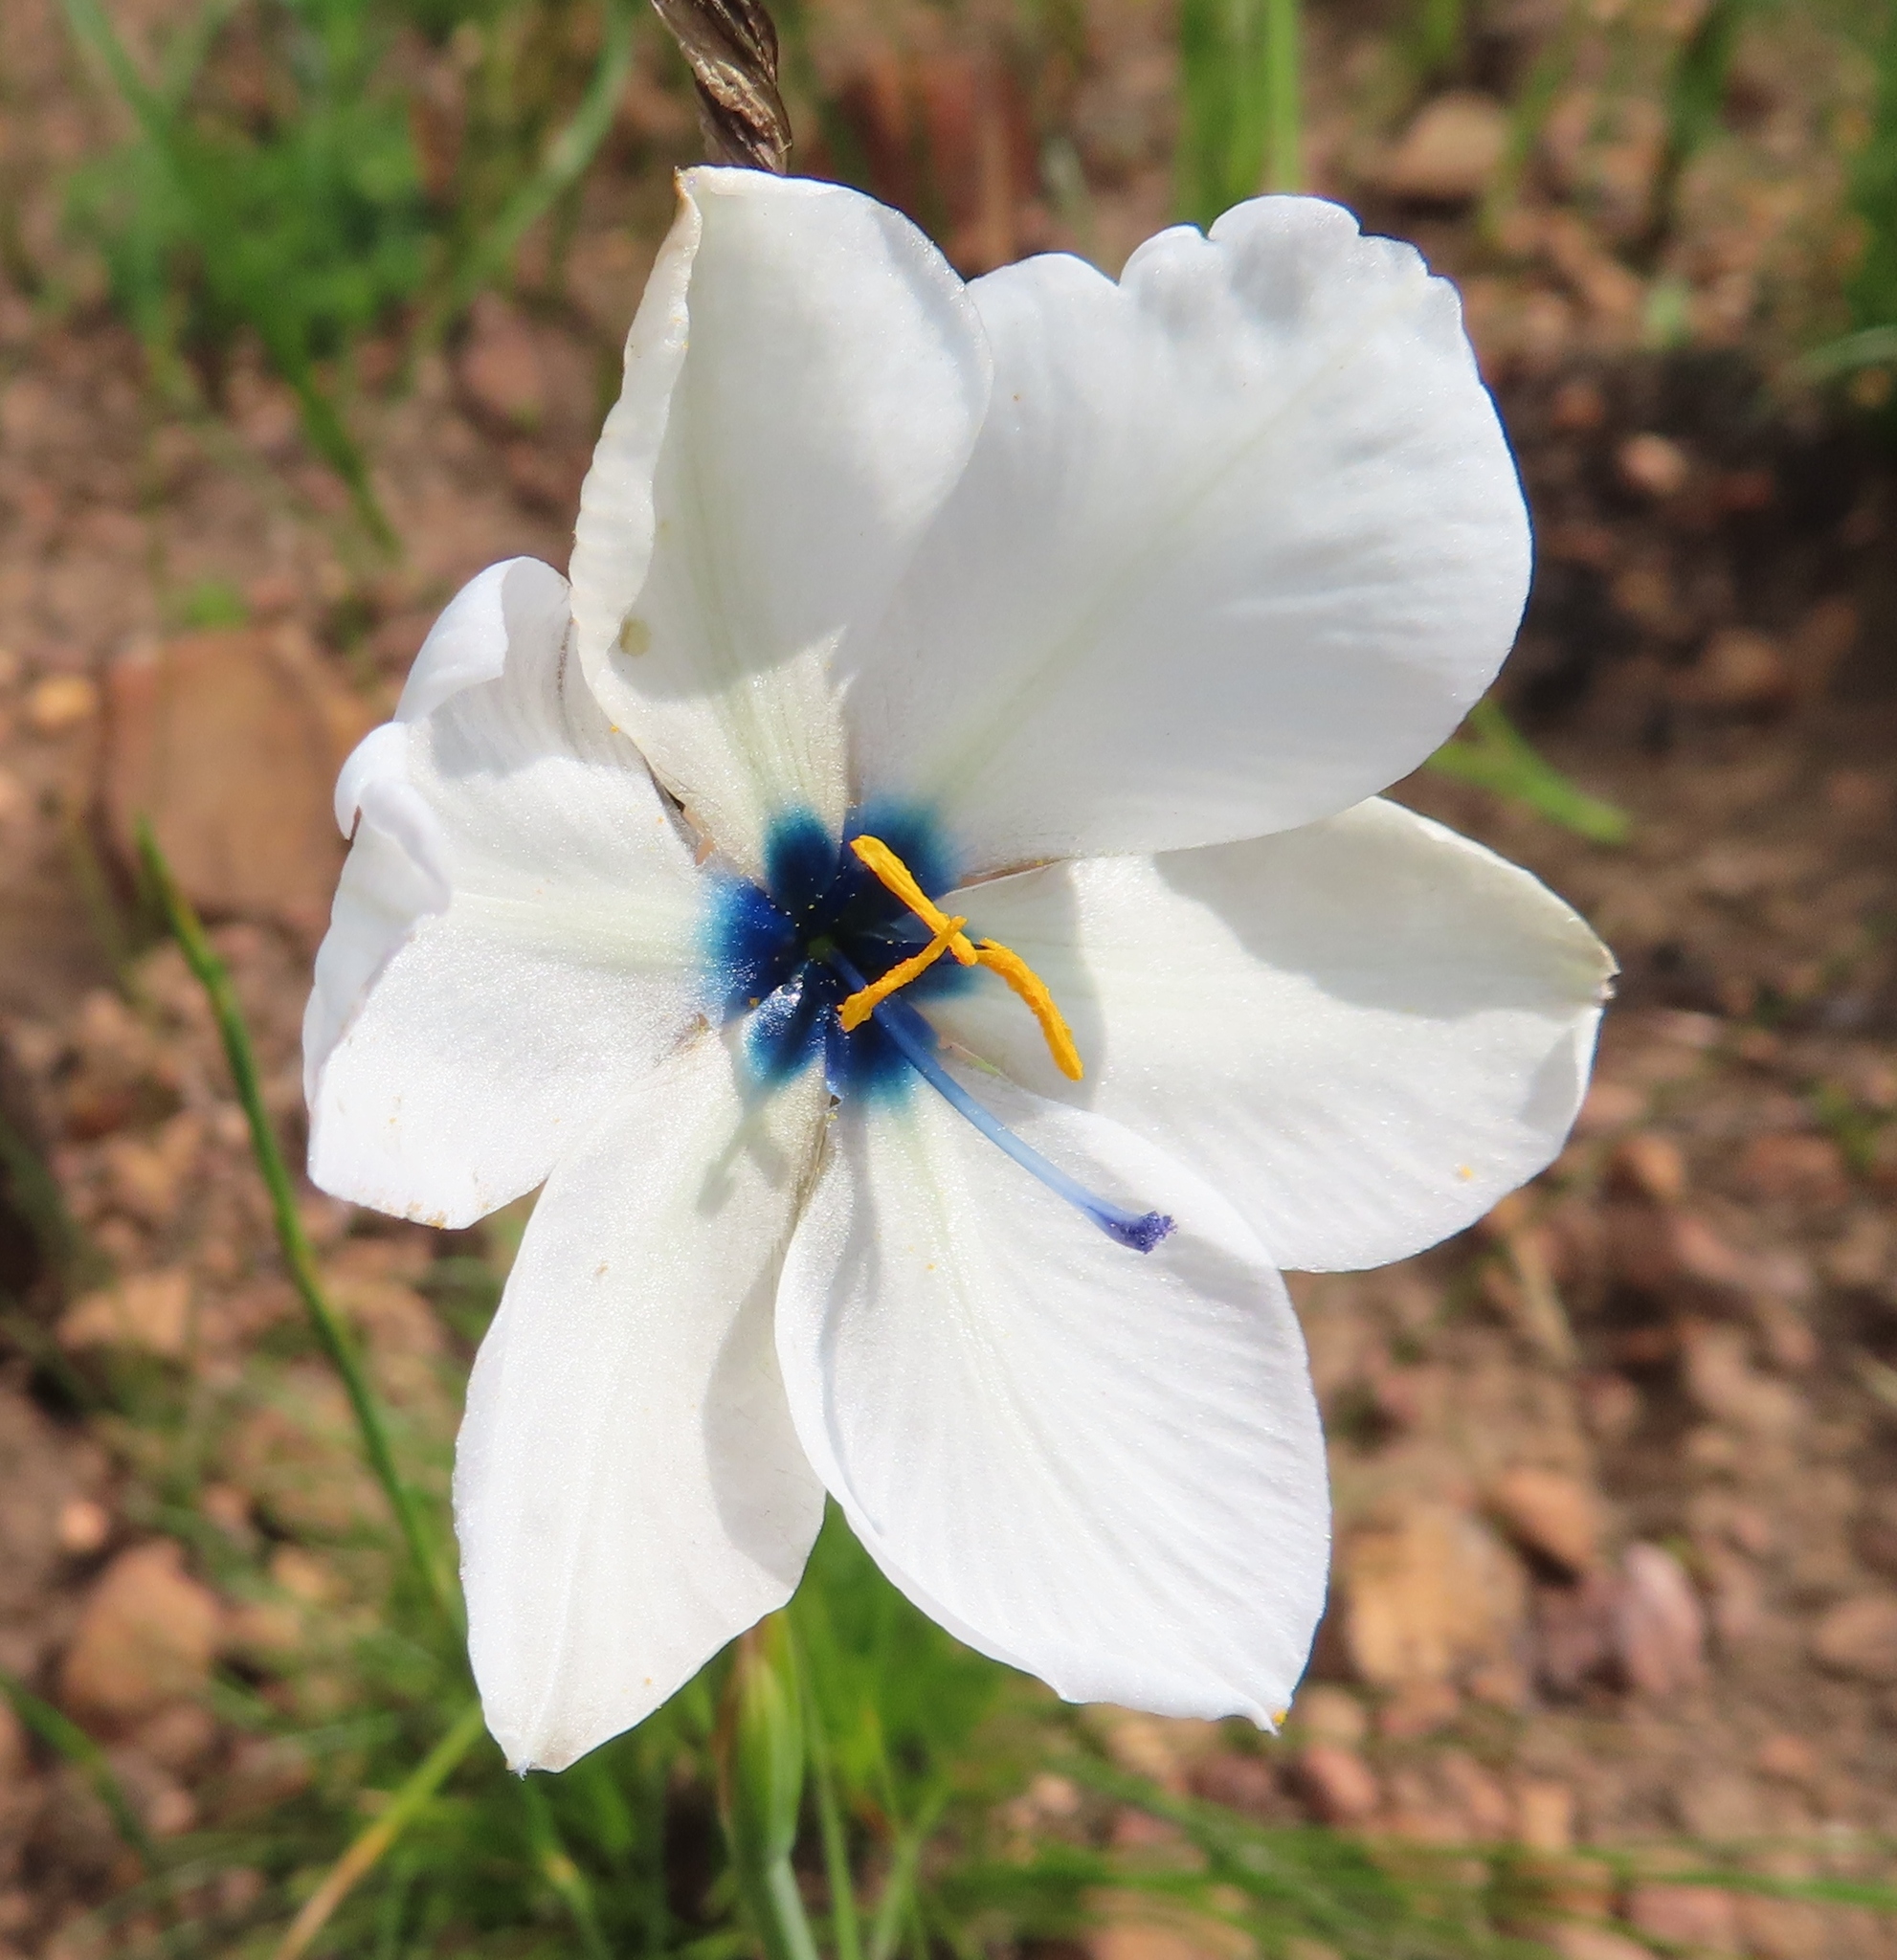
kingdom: Plantae
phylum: Tracheophyta
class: Liliopsida
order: Asparagales
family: Iridaceae
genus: Aristea
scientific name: Aristea cantharophila
